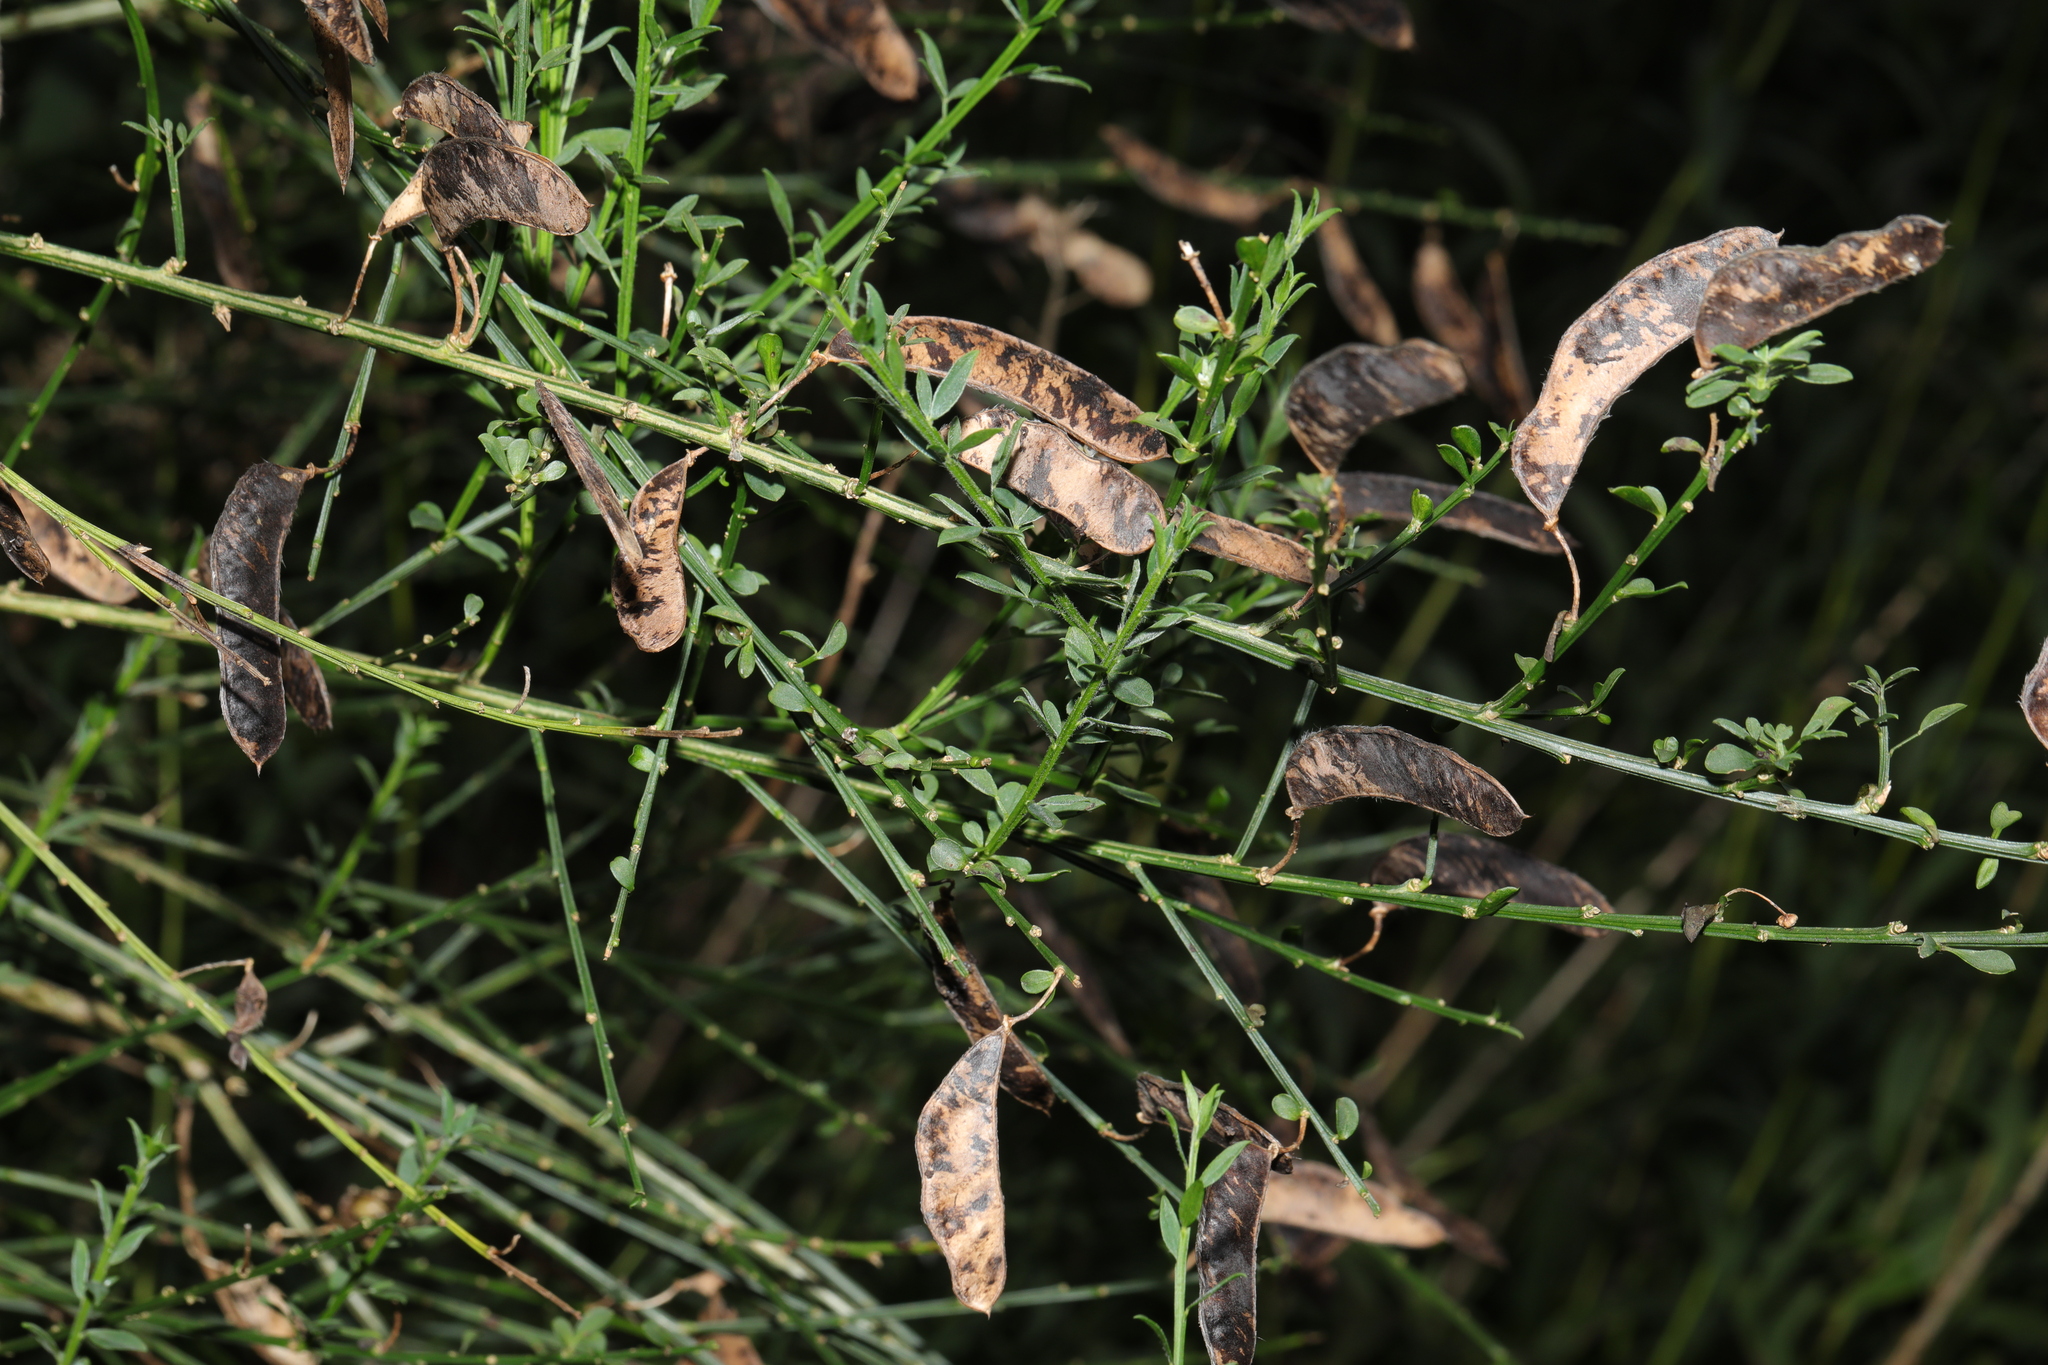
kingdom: Plantae
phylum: Tracheophyta
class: Magnoliopsida
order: Fabales
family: Fabaceae
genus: Cytisus
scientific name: Cytisus scoparius
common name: Scotch broom
